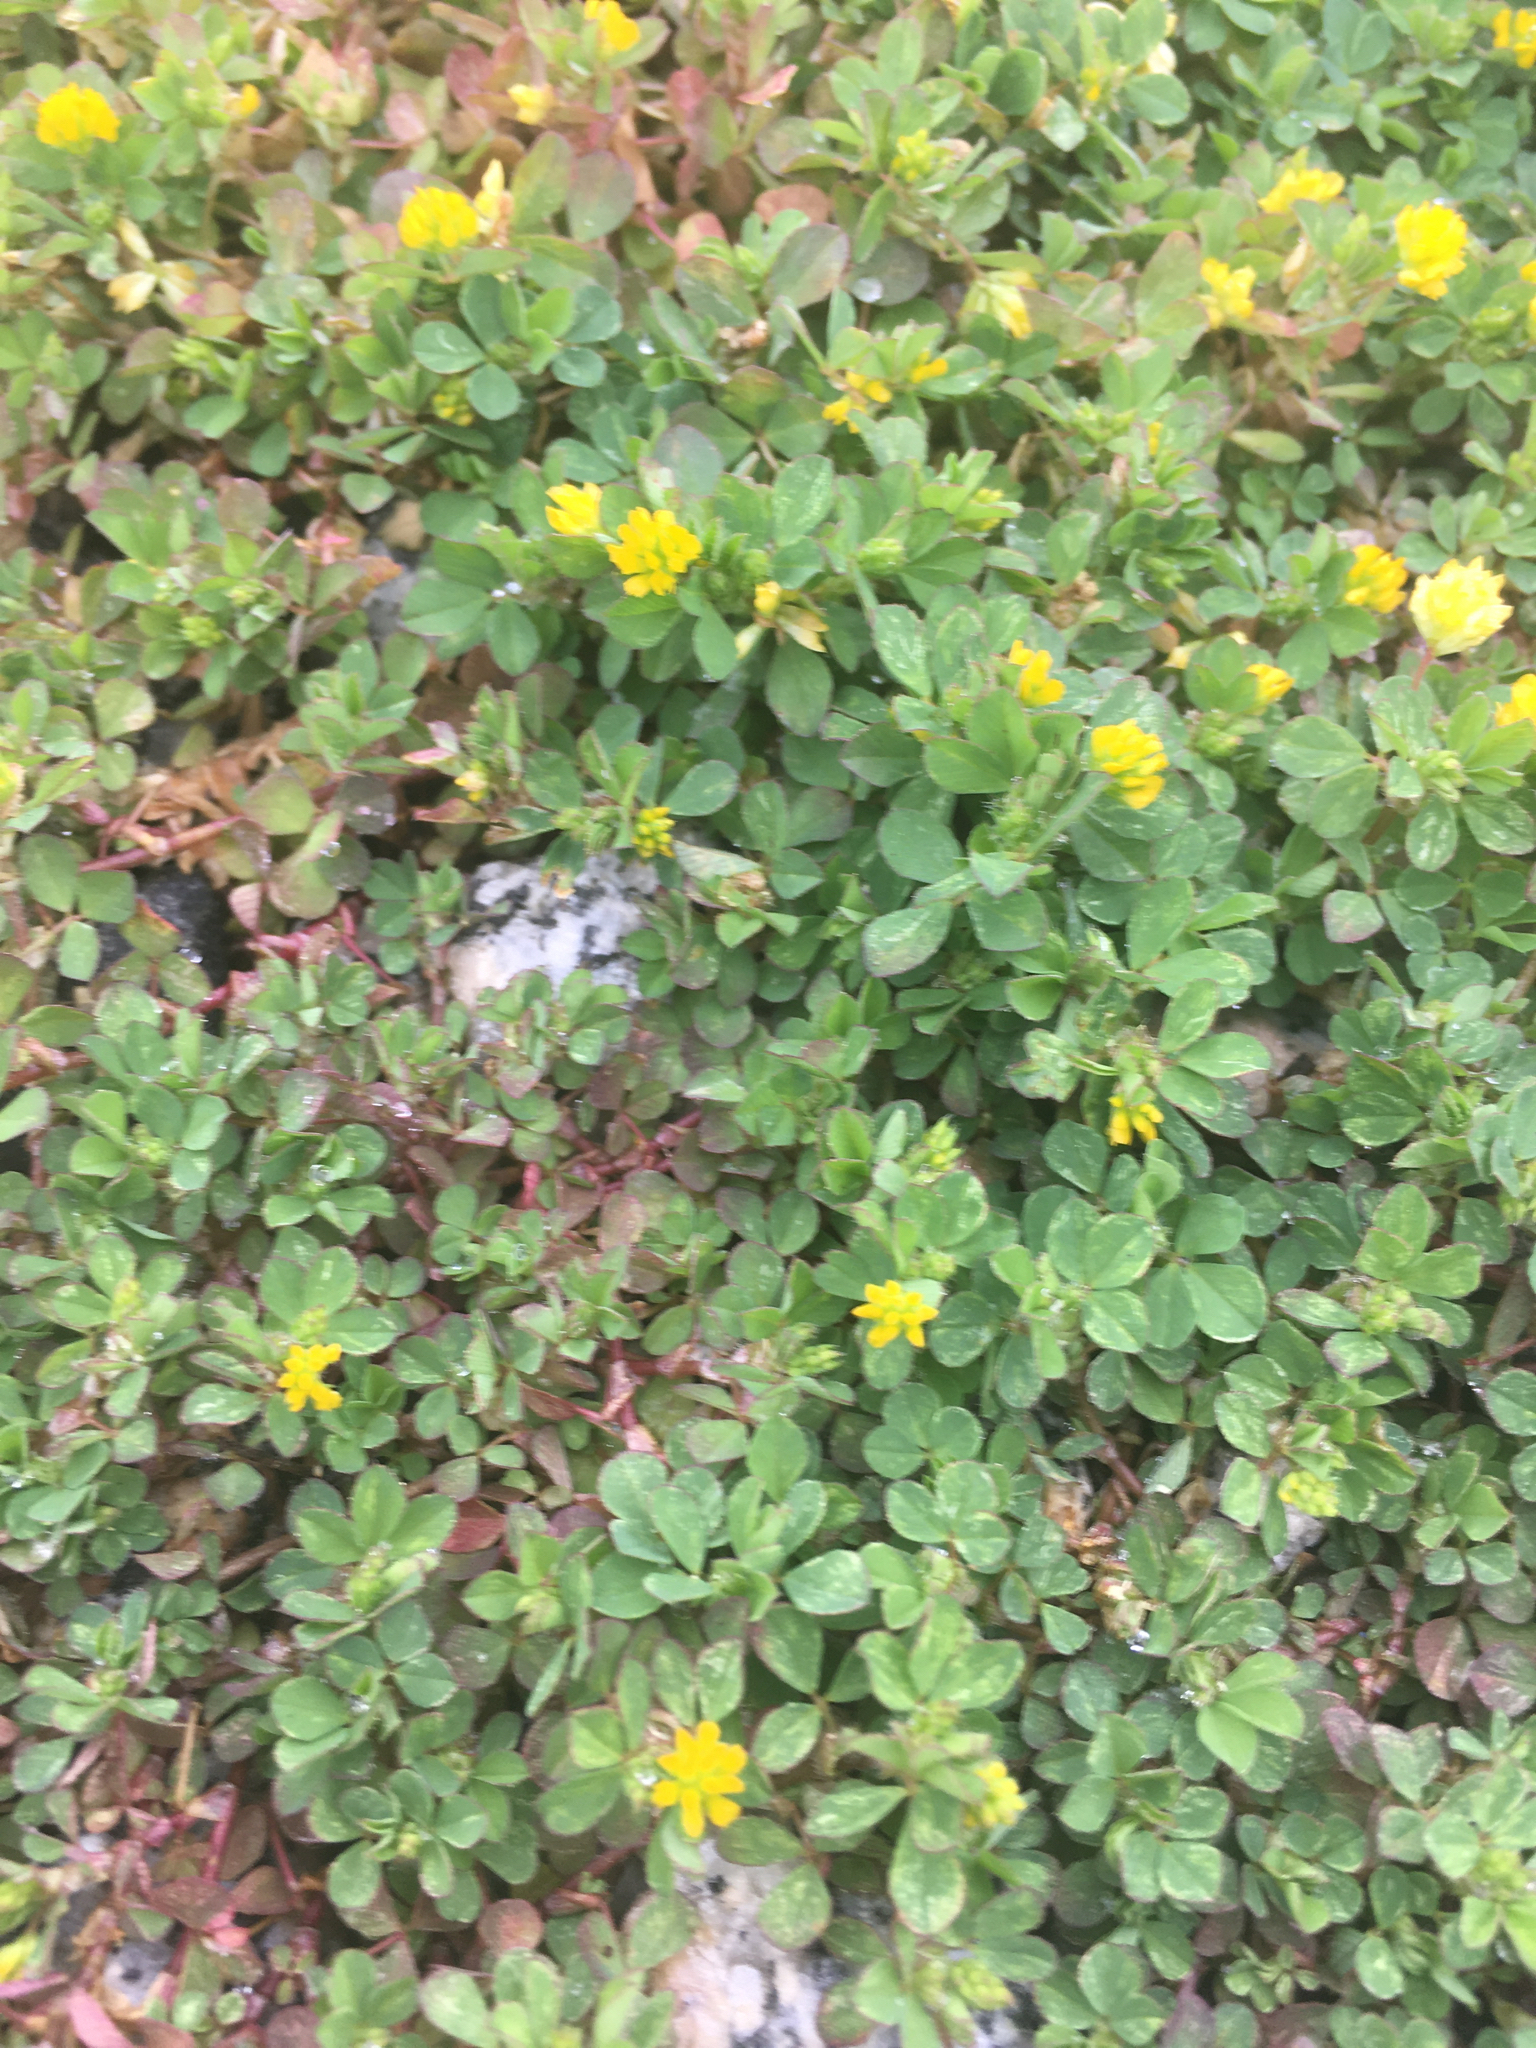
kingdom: Plantae
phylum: Tracheophyta
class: Magnoliopsida
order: Fabales
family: Fabaceae
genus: Trifolium
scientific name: Trifolium dubium
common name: Suckling clover
